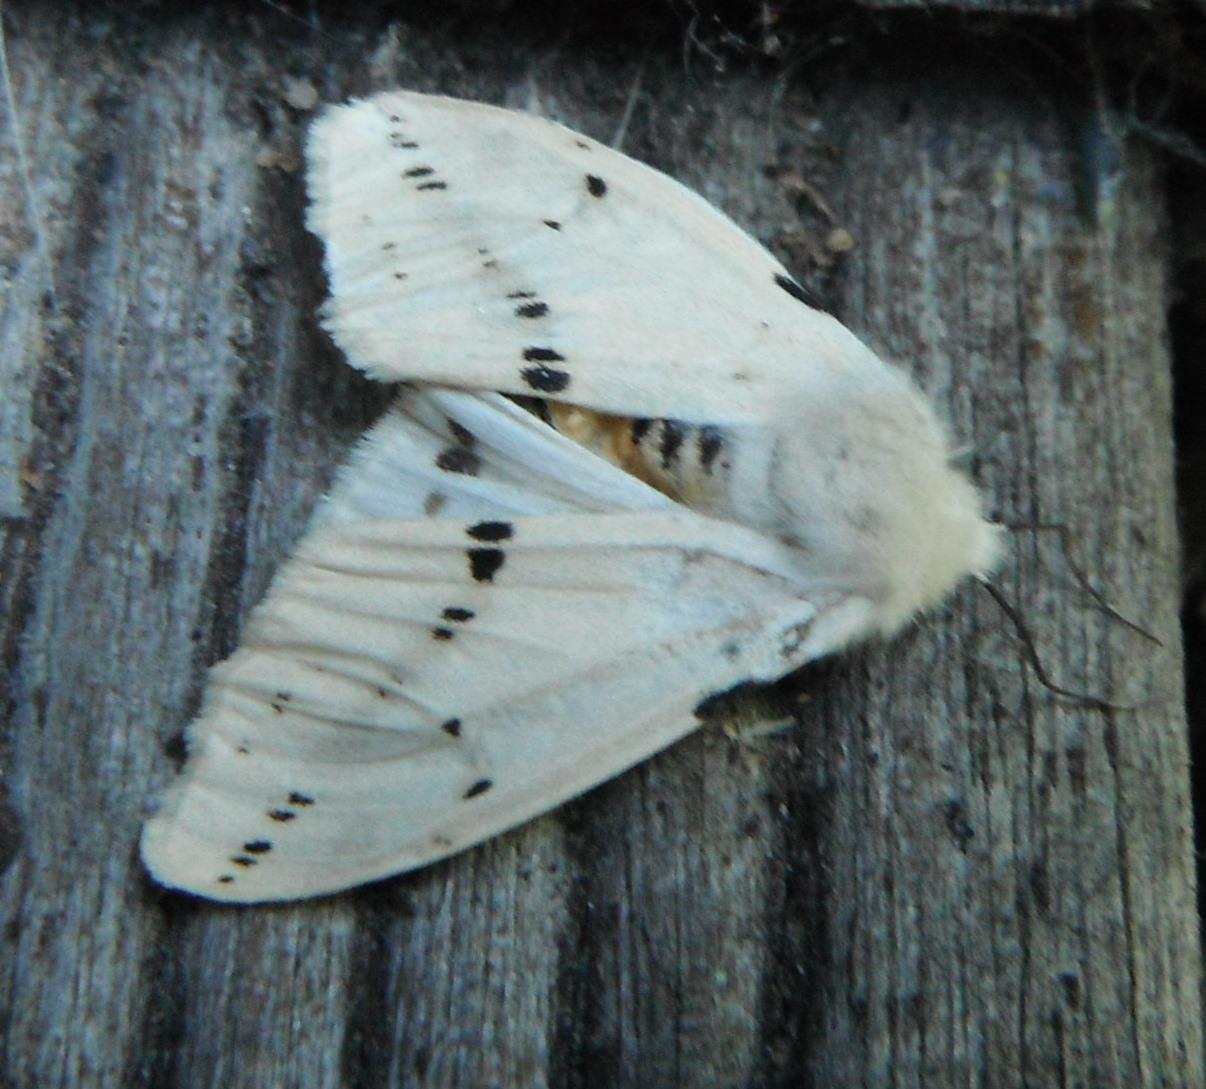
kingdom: Animalia
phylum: Arthropoda
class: Insecta
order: Lepidoptera
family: Erebidae
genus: Spilarctia
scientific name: Spilarctia lutea
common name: Buff ermine
